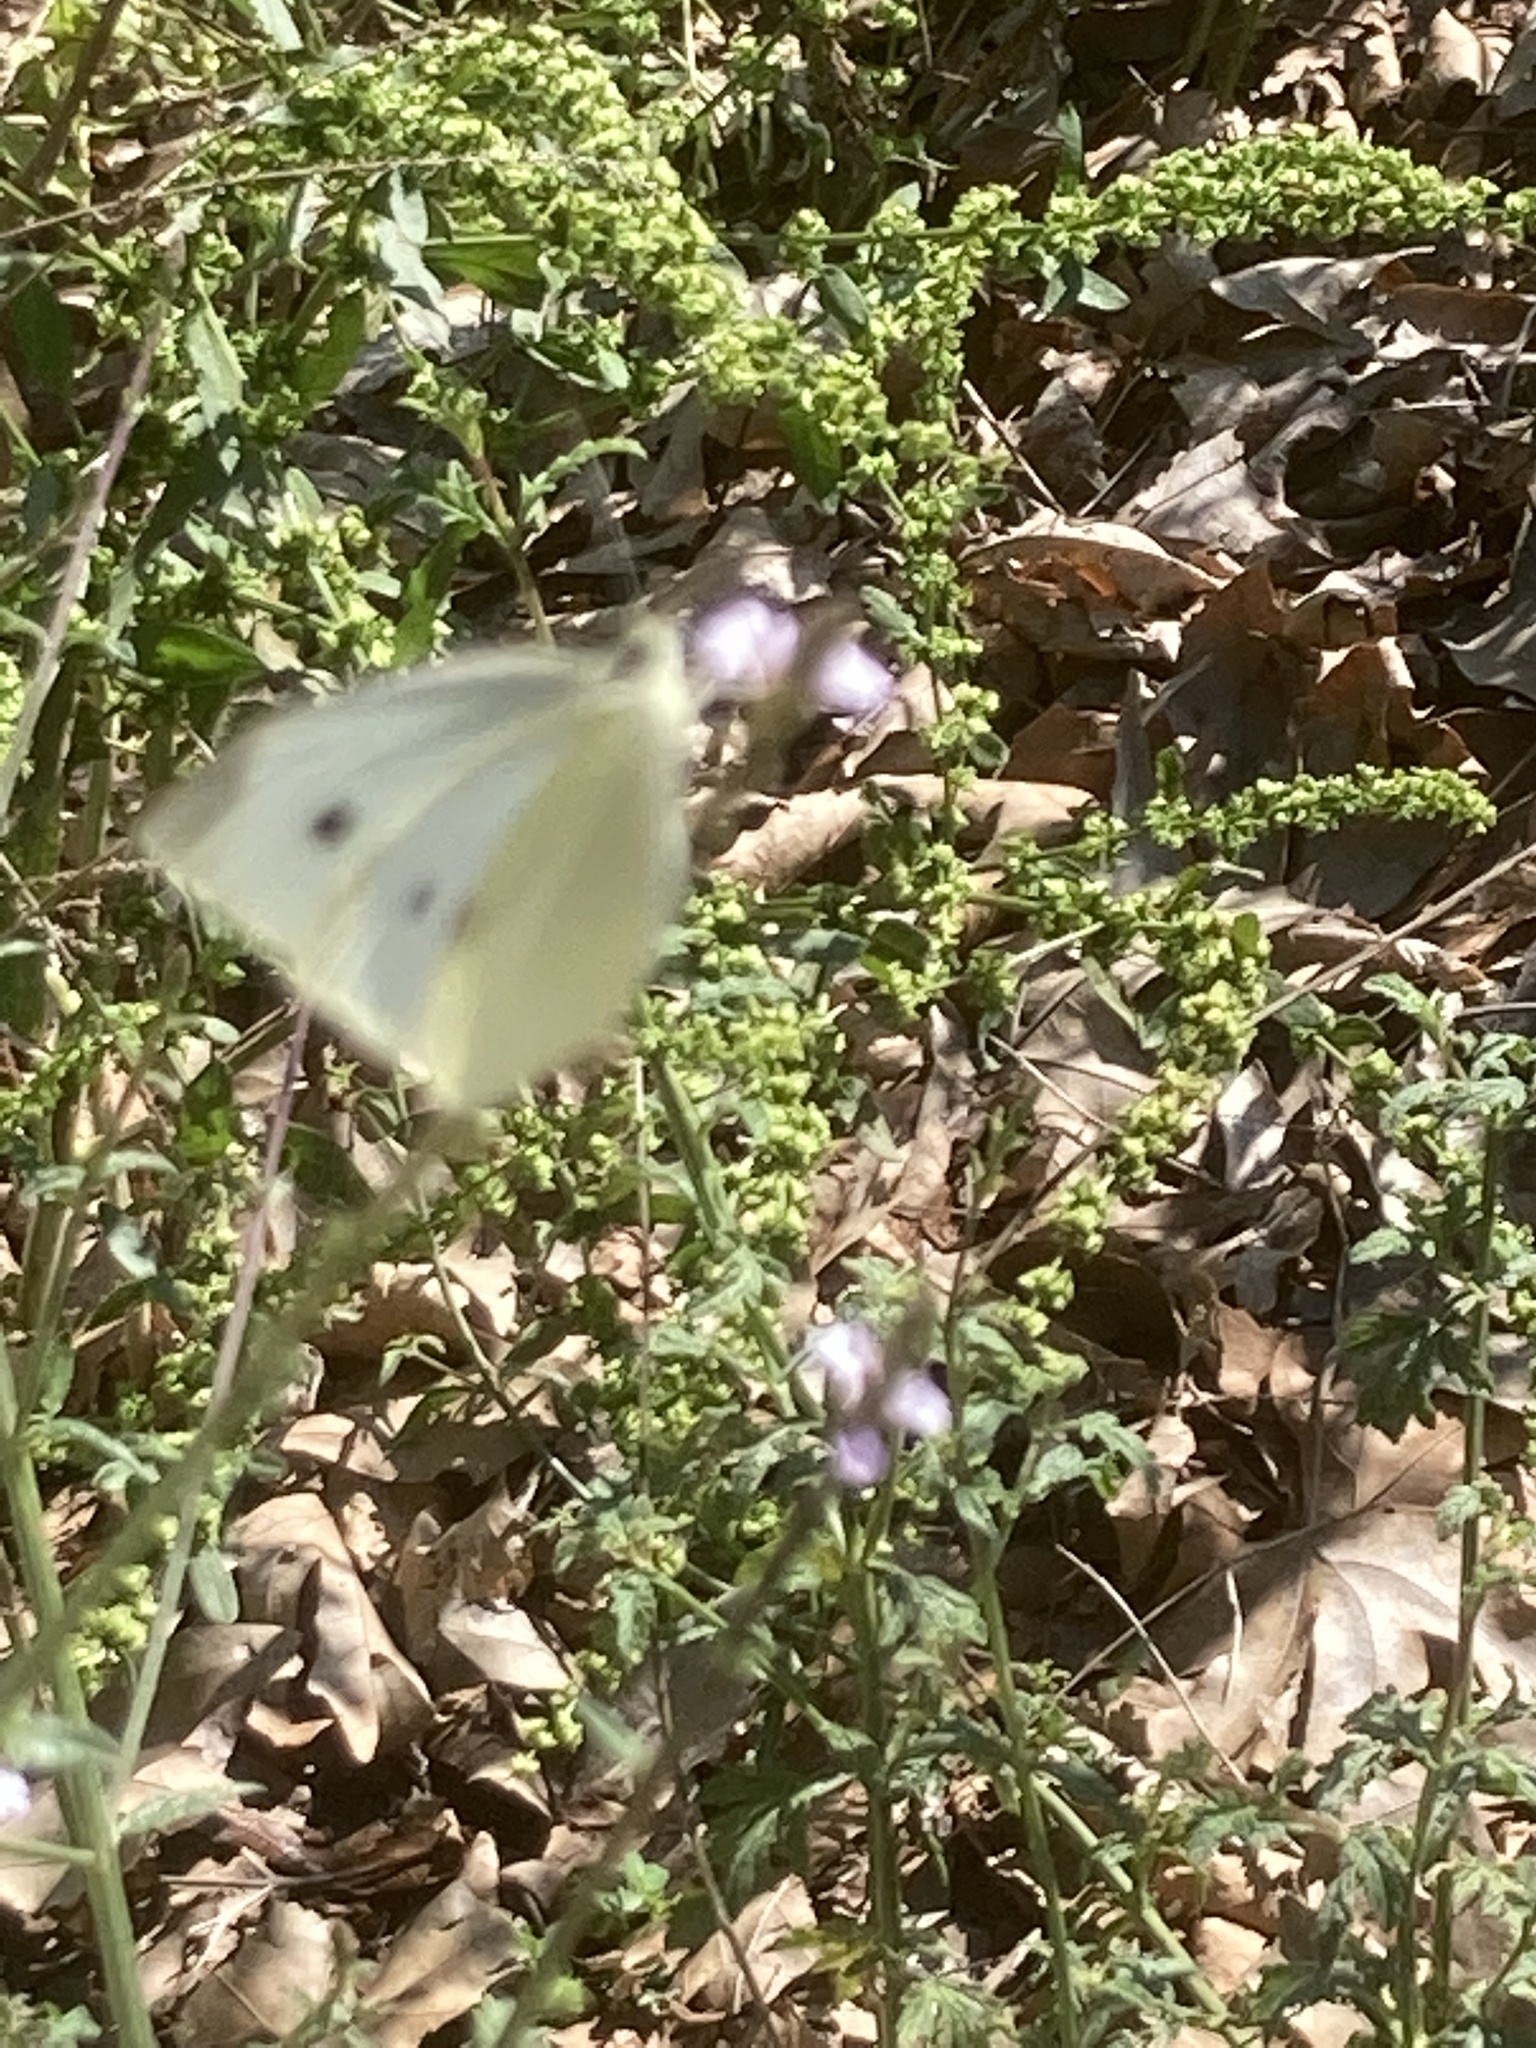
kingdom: Animalia
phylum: Arthropoda
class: Insecta
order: Lepidoptera
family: Pieridae
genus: Pieris
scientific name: Pieris rapae
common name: Small white
